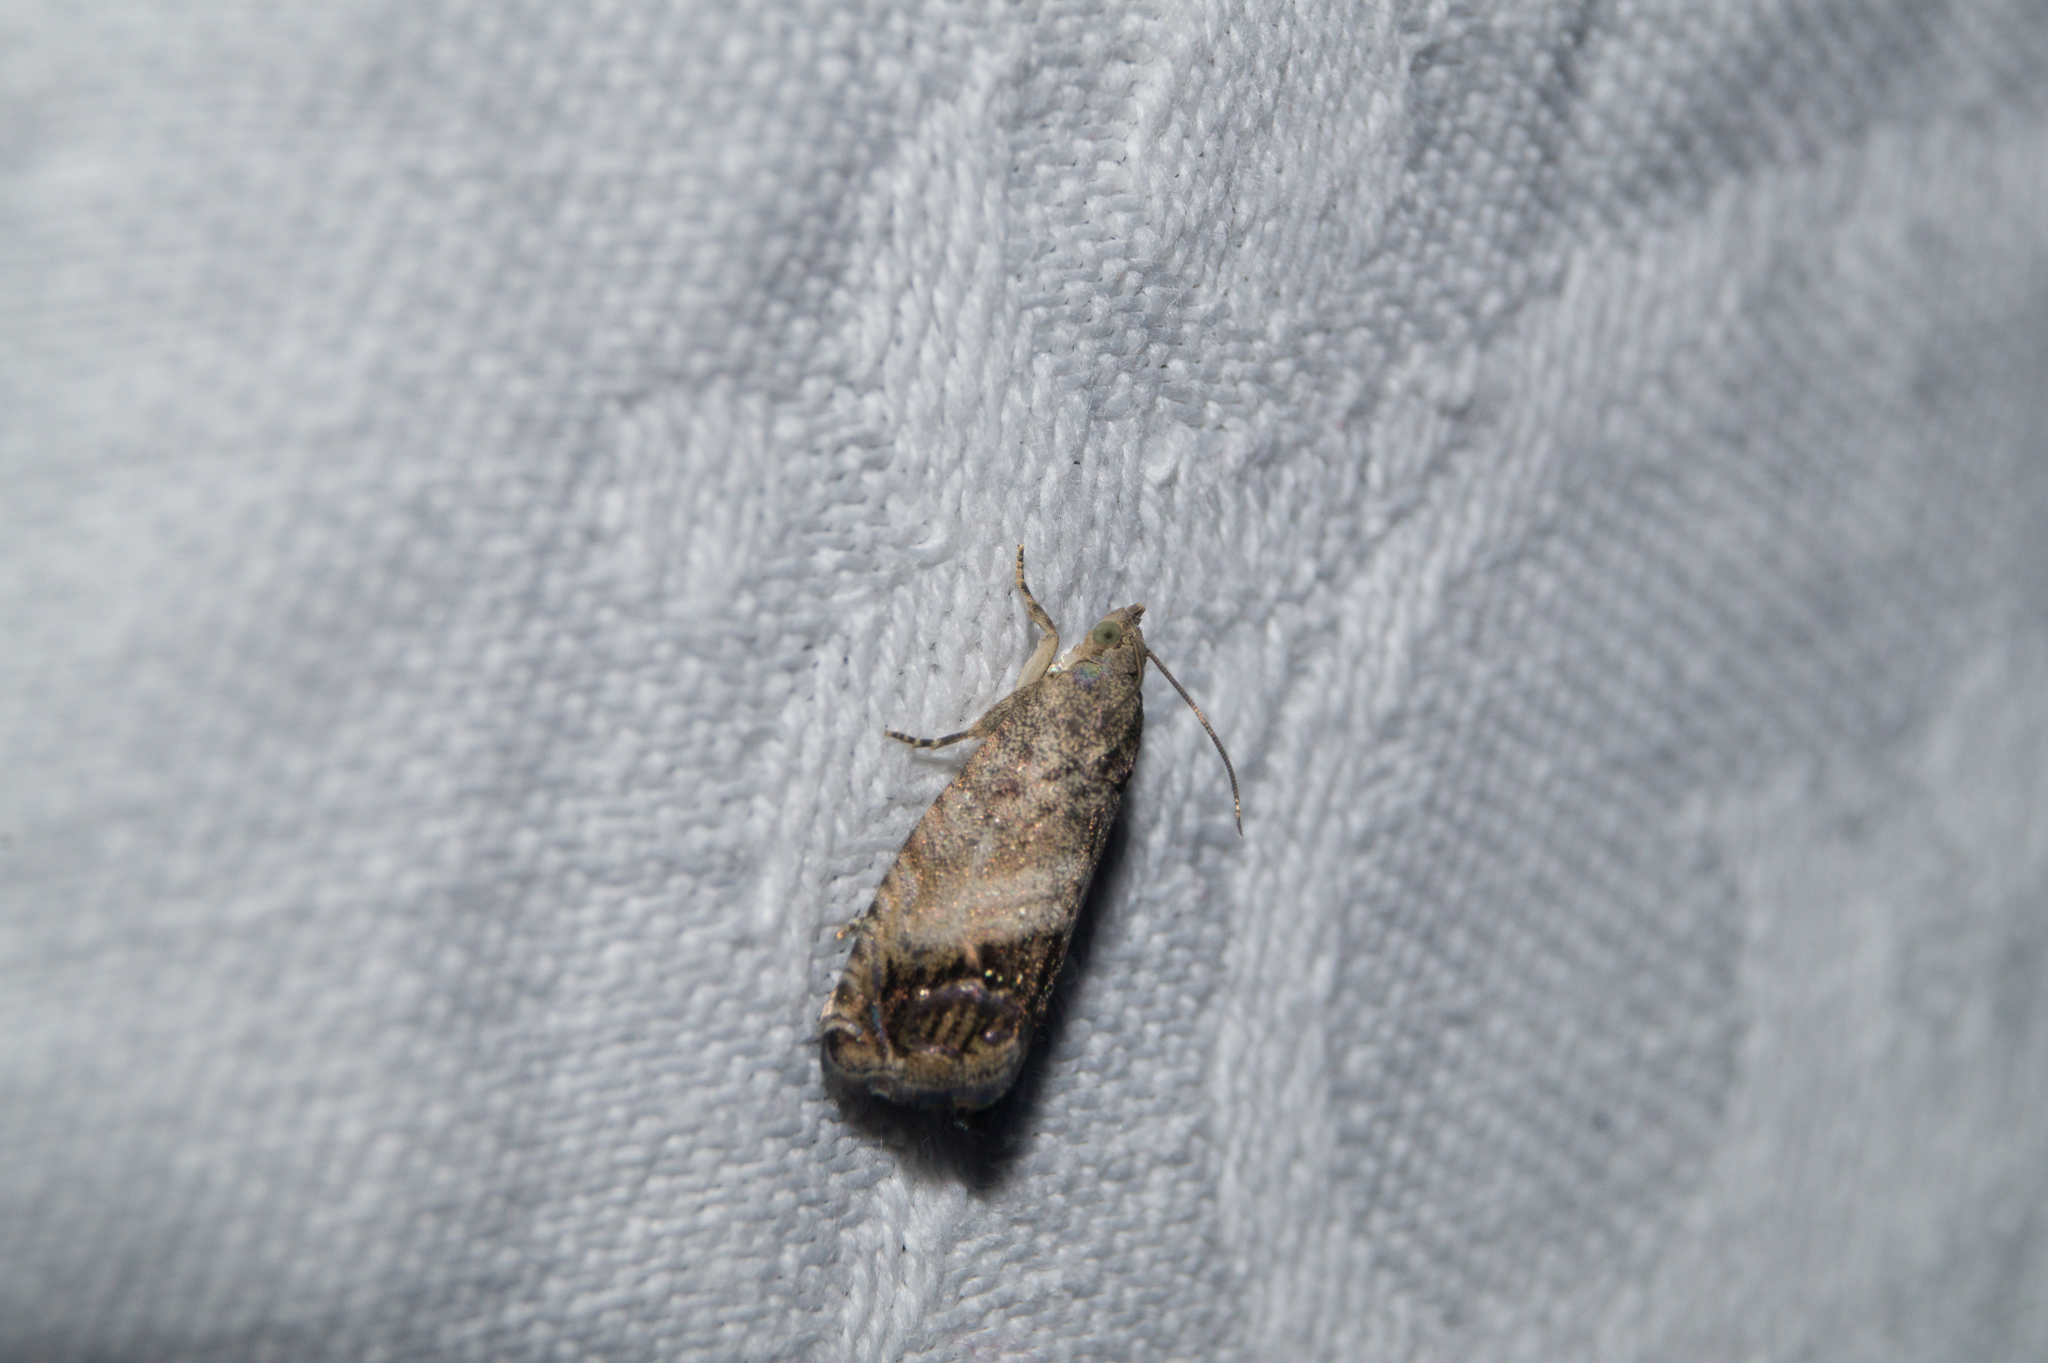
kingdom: Animalia
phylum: Arthropoda
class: Insecta
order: Lepidoptera
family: Tortricidae
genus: Cydia
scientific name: Cydia splendana
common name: De: kastanienwickler, eichenwickler es: oruga de la castaña fr: carpocapse des châtaignes it: cidia o tortrice tardiva delle castagne pt: bichado das castanhas gb: acorn moth, chestnut fruit tortrix
